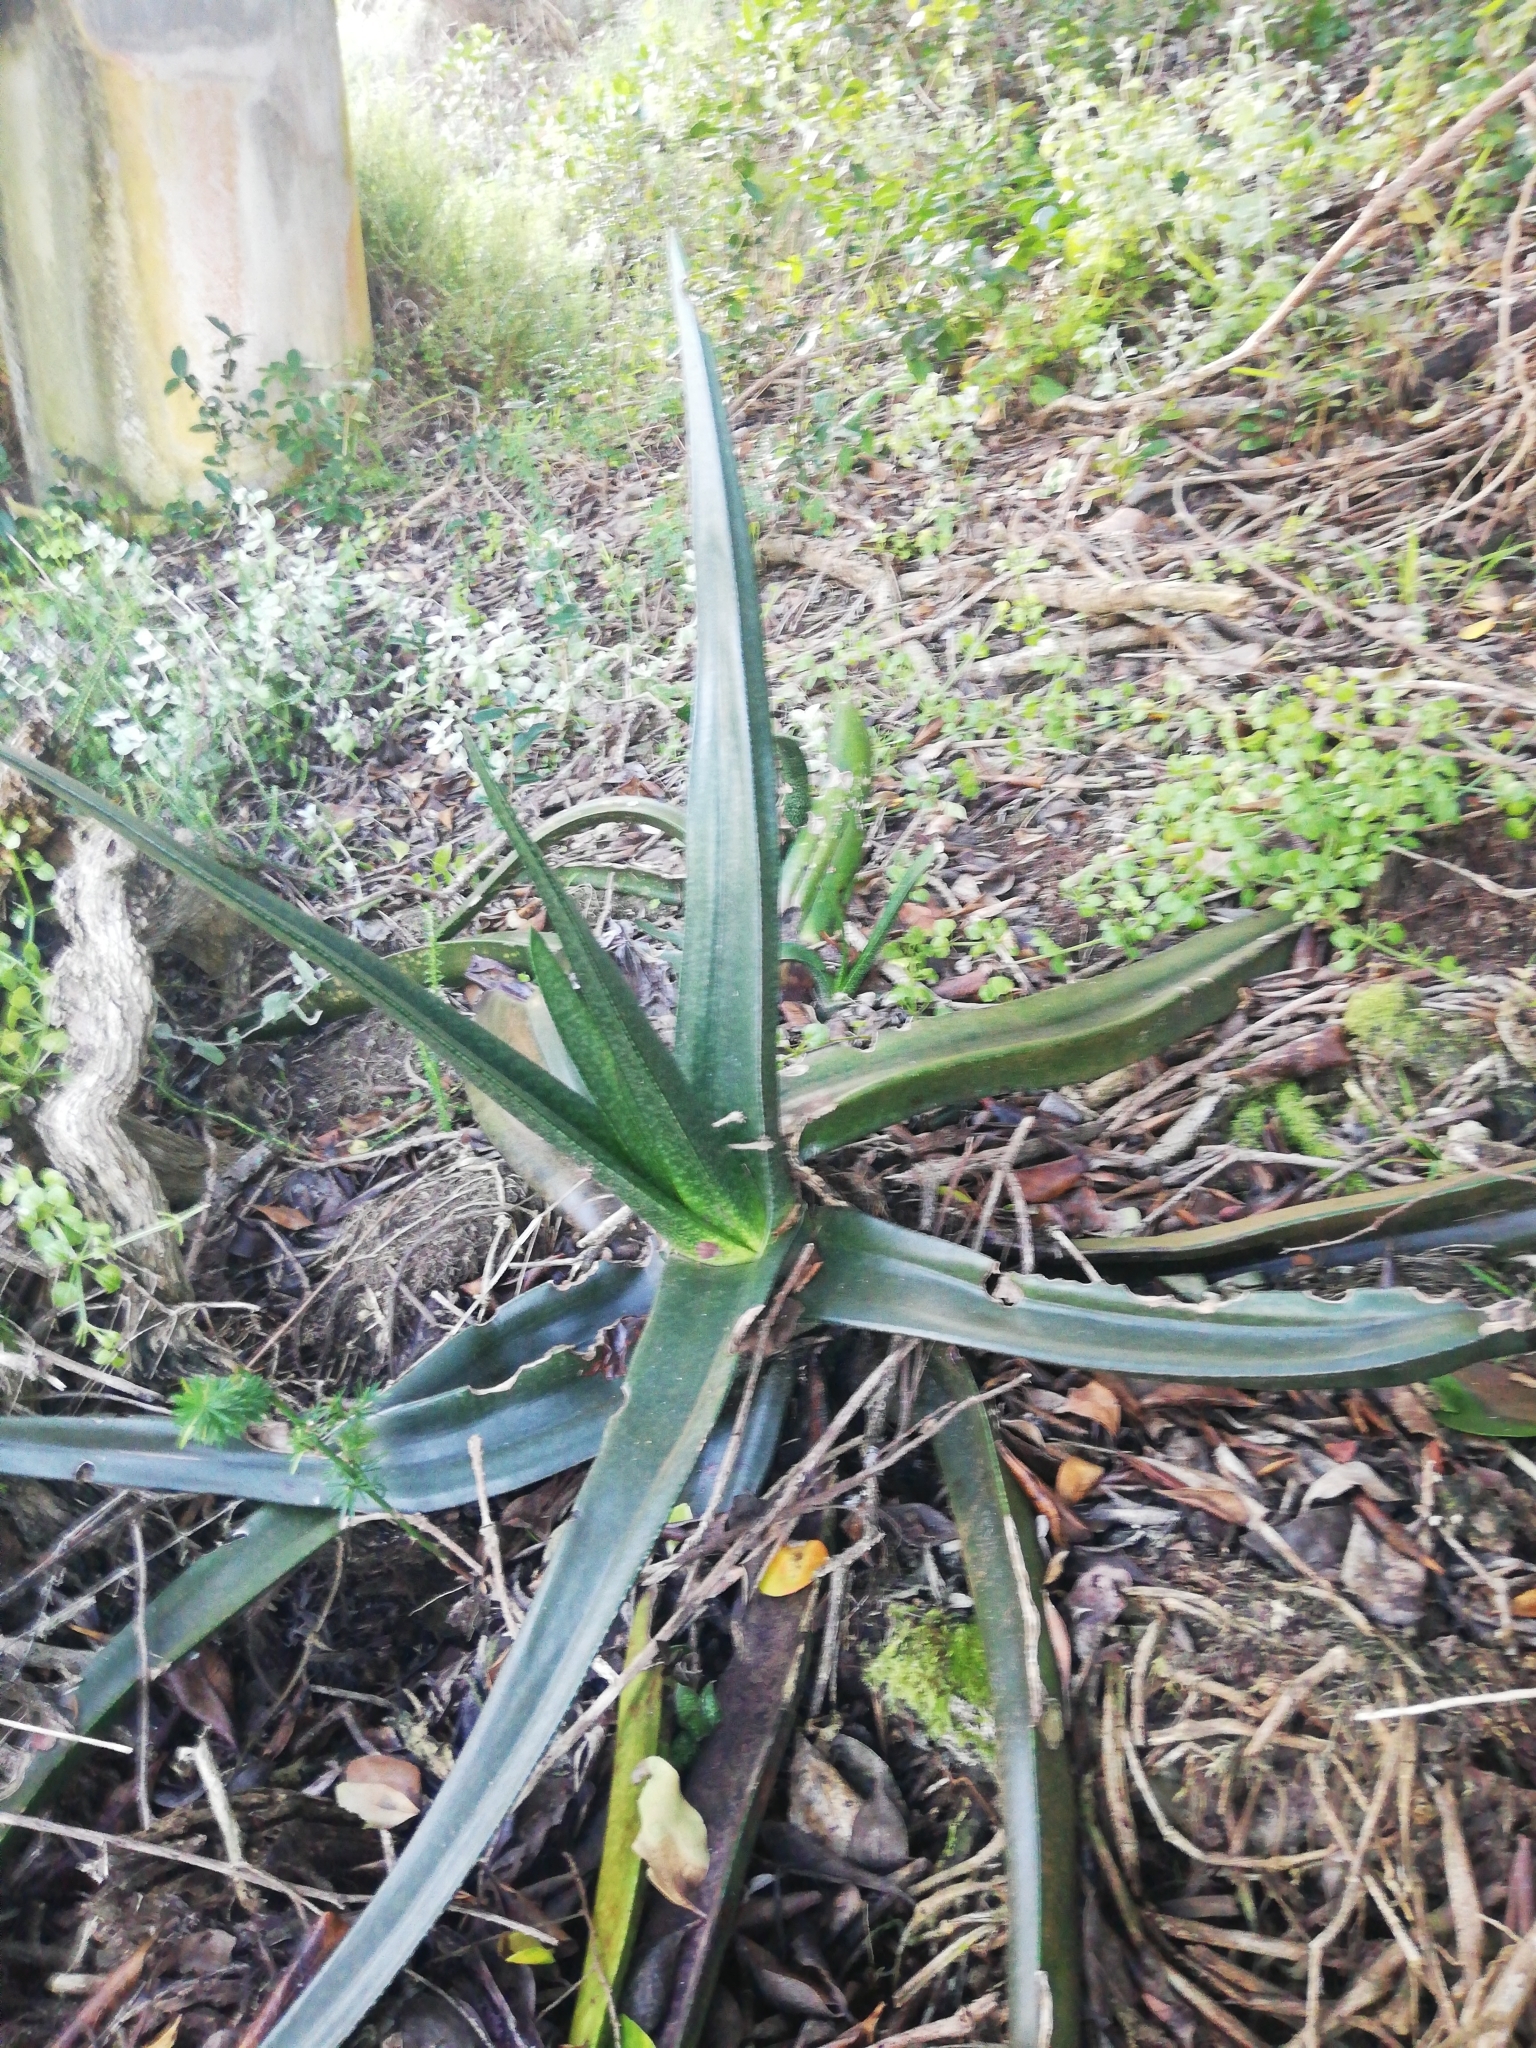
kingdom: Plantae
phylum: Tracheophyta
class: Liliopsida
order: Asparagales
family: Asphodelaceae
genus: Gasteria
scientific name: Gasteria acinacifolia
